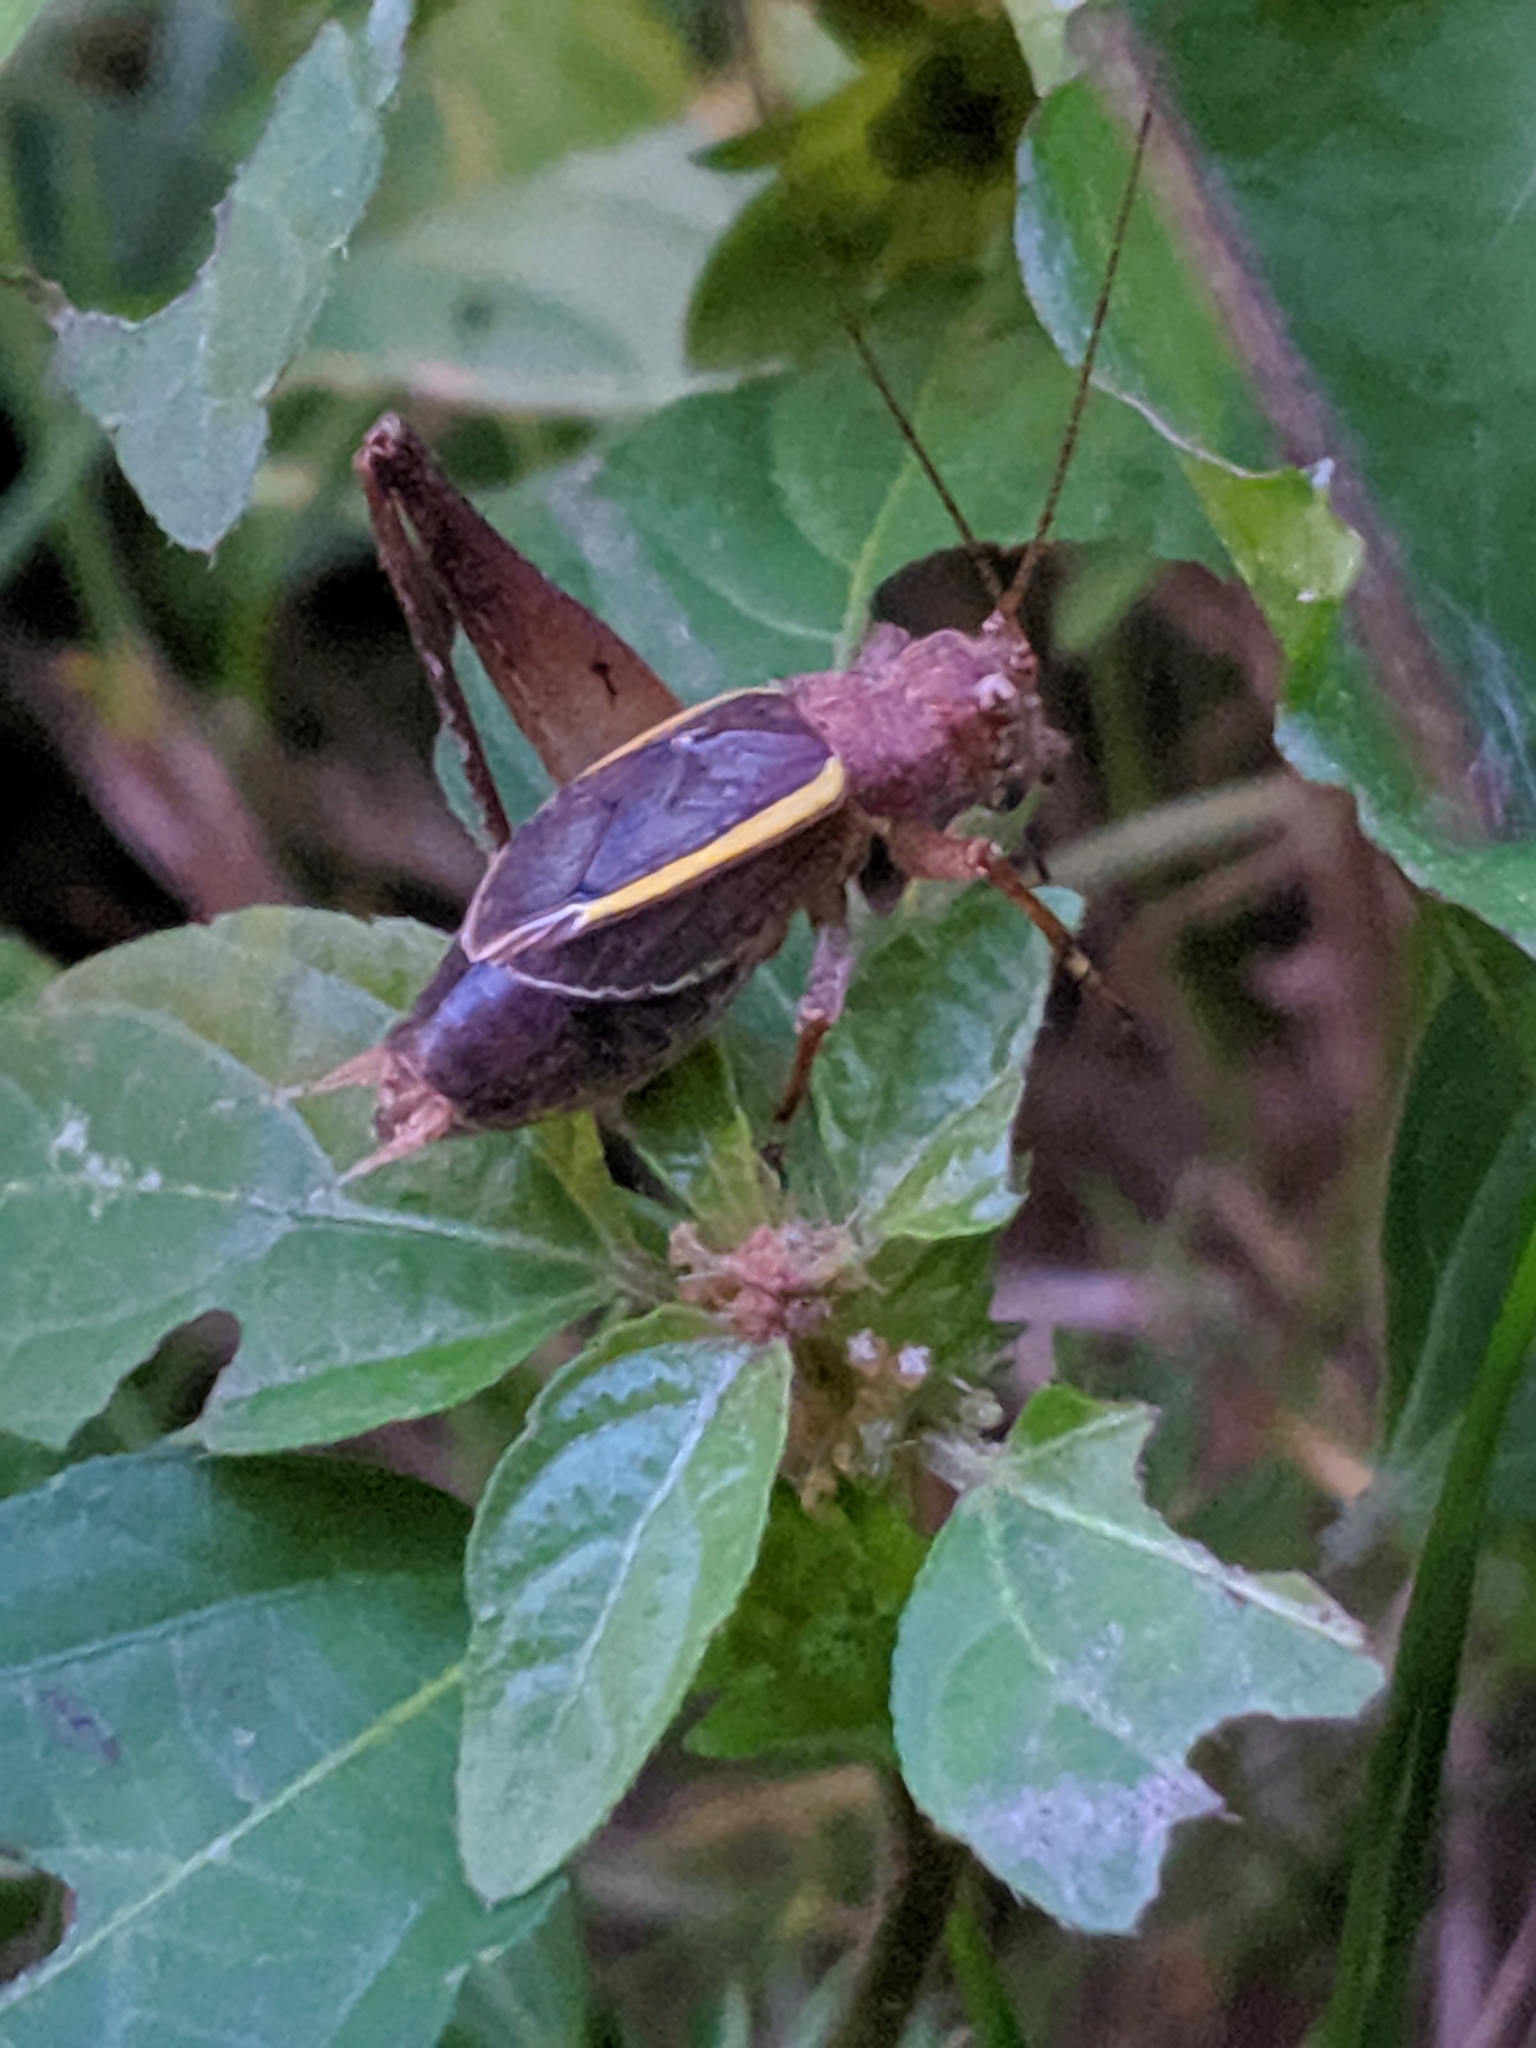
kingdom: Animalia
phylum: Arthropoda
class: Insecta
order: Orthoptera
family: Gryllidae
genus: Hapithus
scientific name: Hapithus agitator
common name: Restless bush cricket
